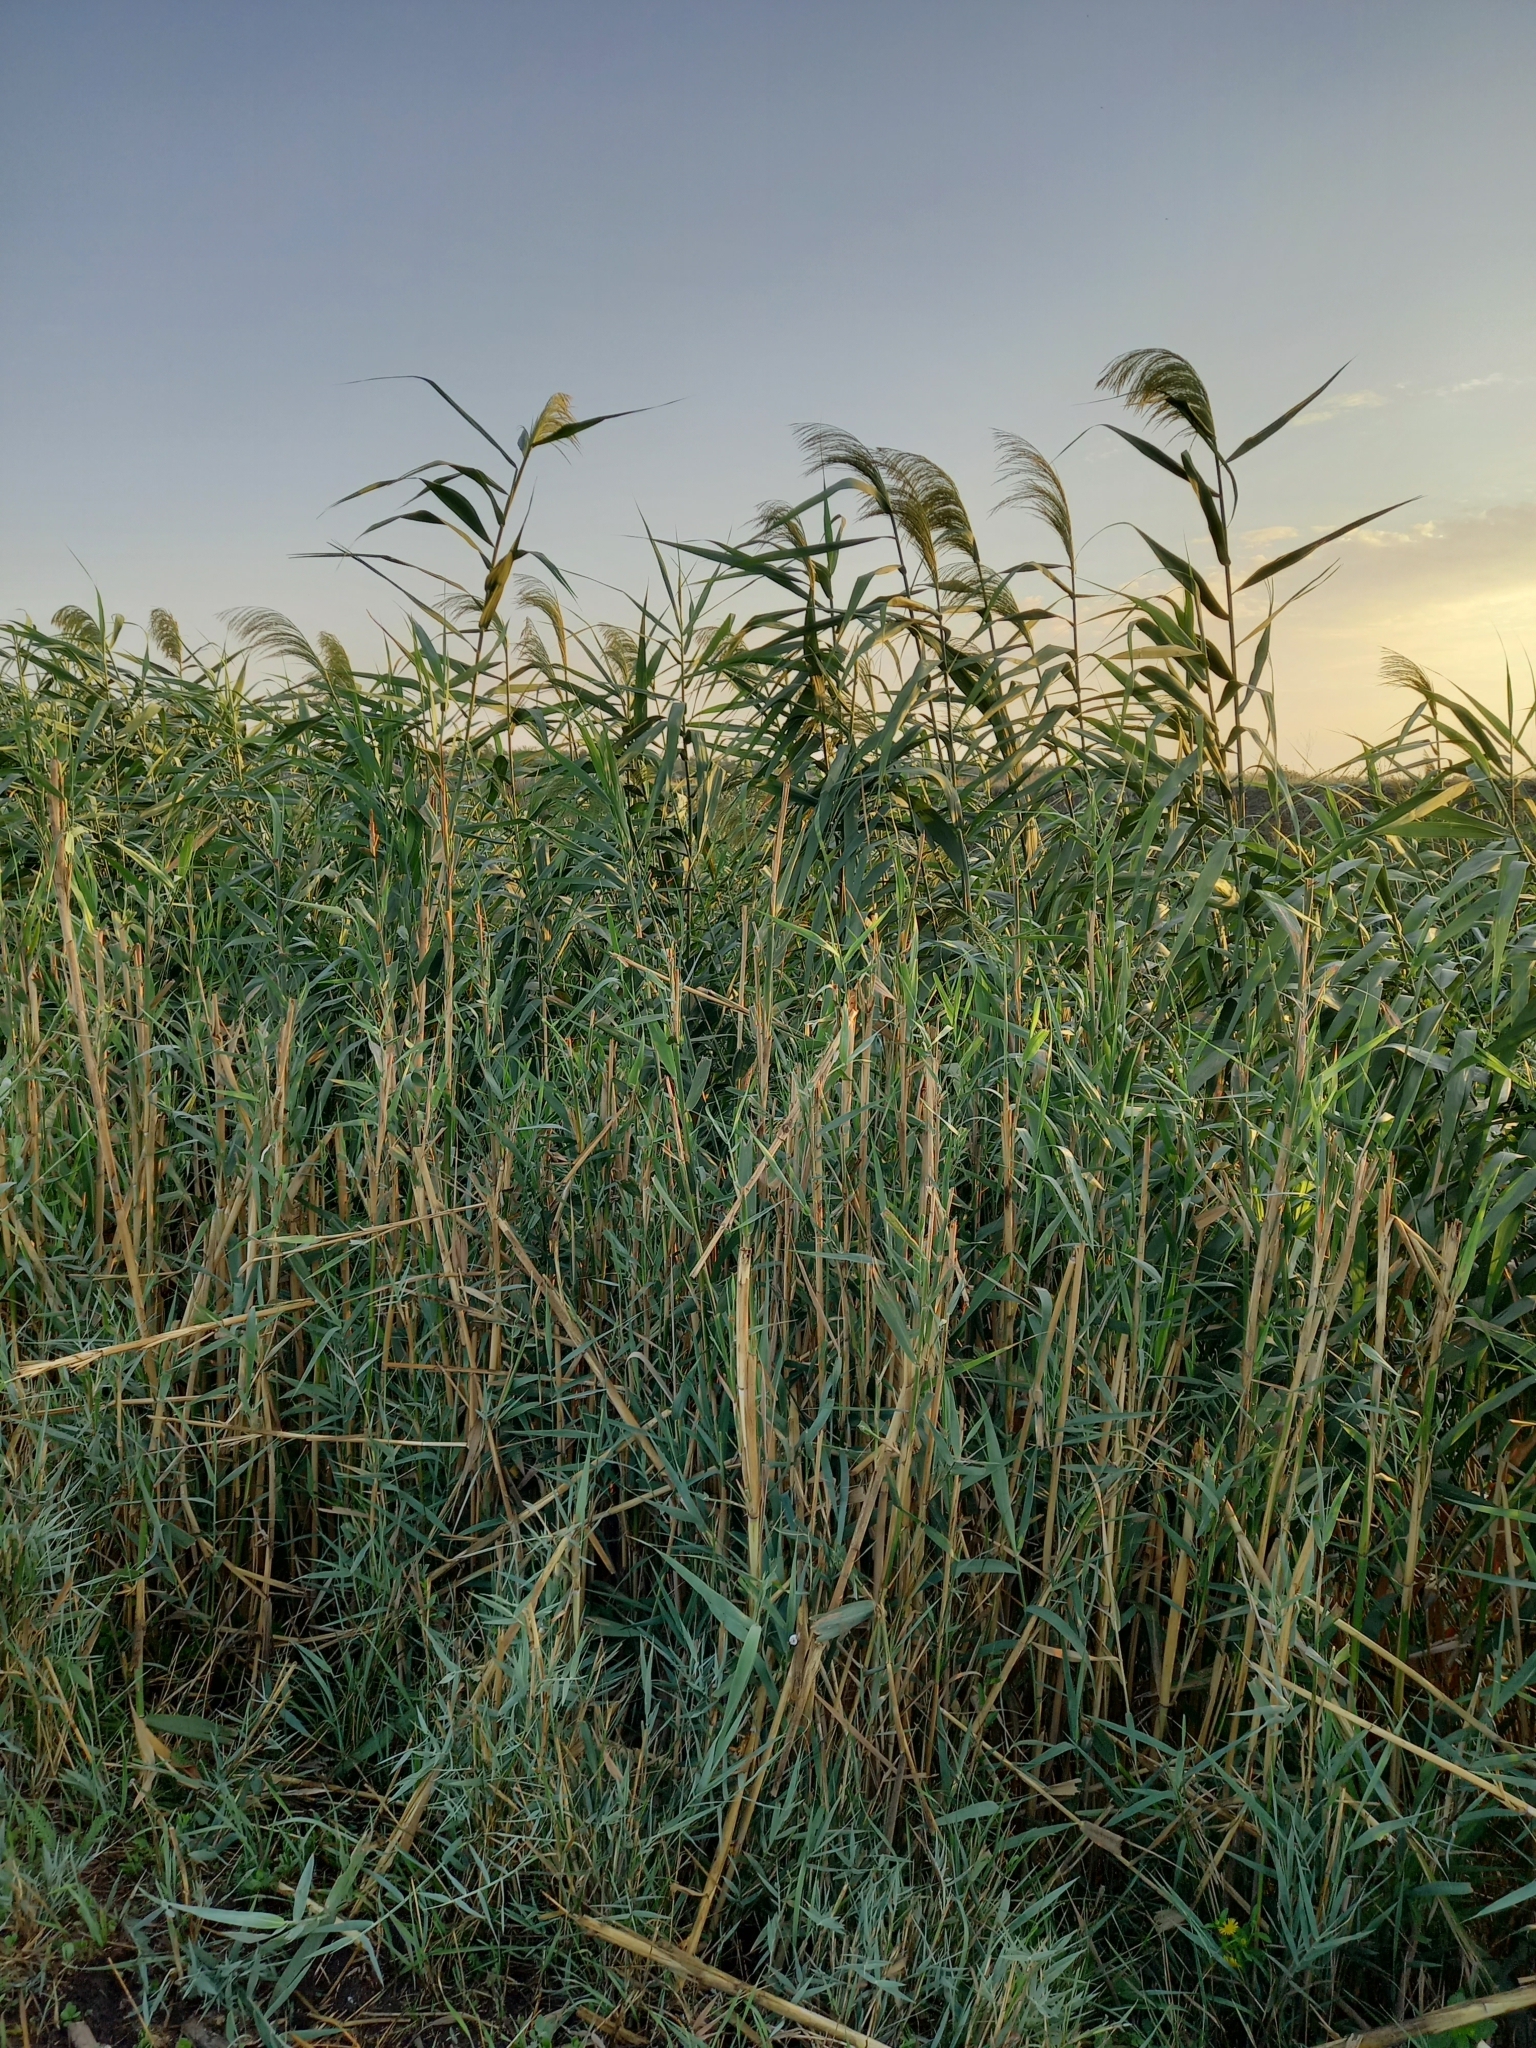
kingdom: Plantae
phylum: Tracheophyta
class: Liliopsida
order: Poales
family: Poaceae
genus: Phragmites
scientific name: Phragmites australis
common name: Common reed
